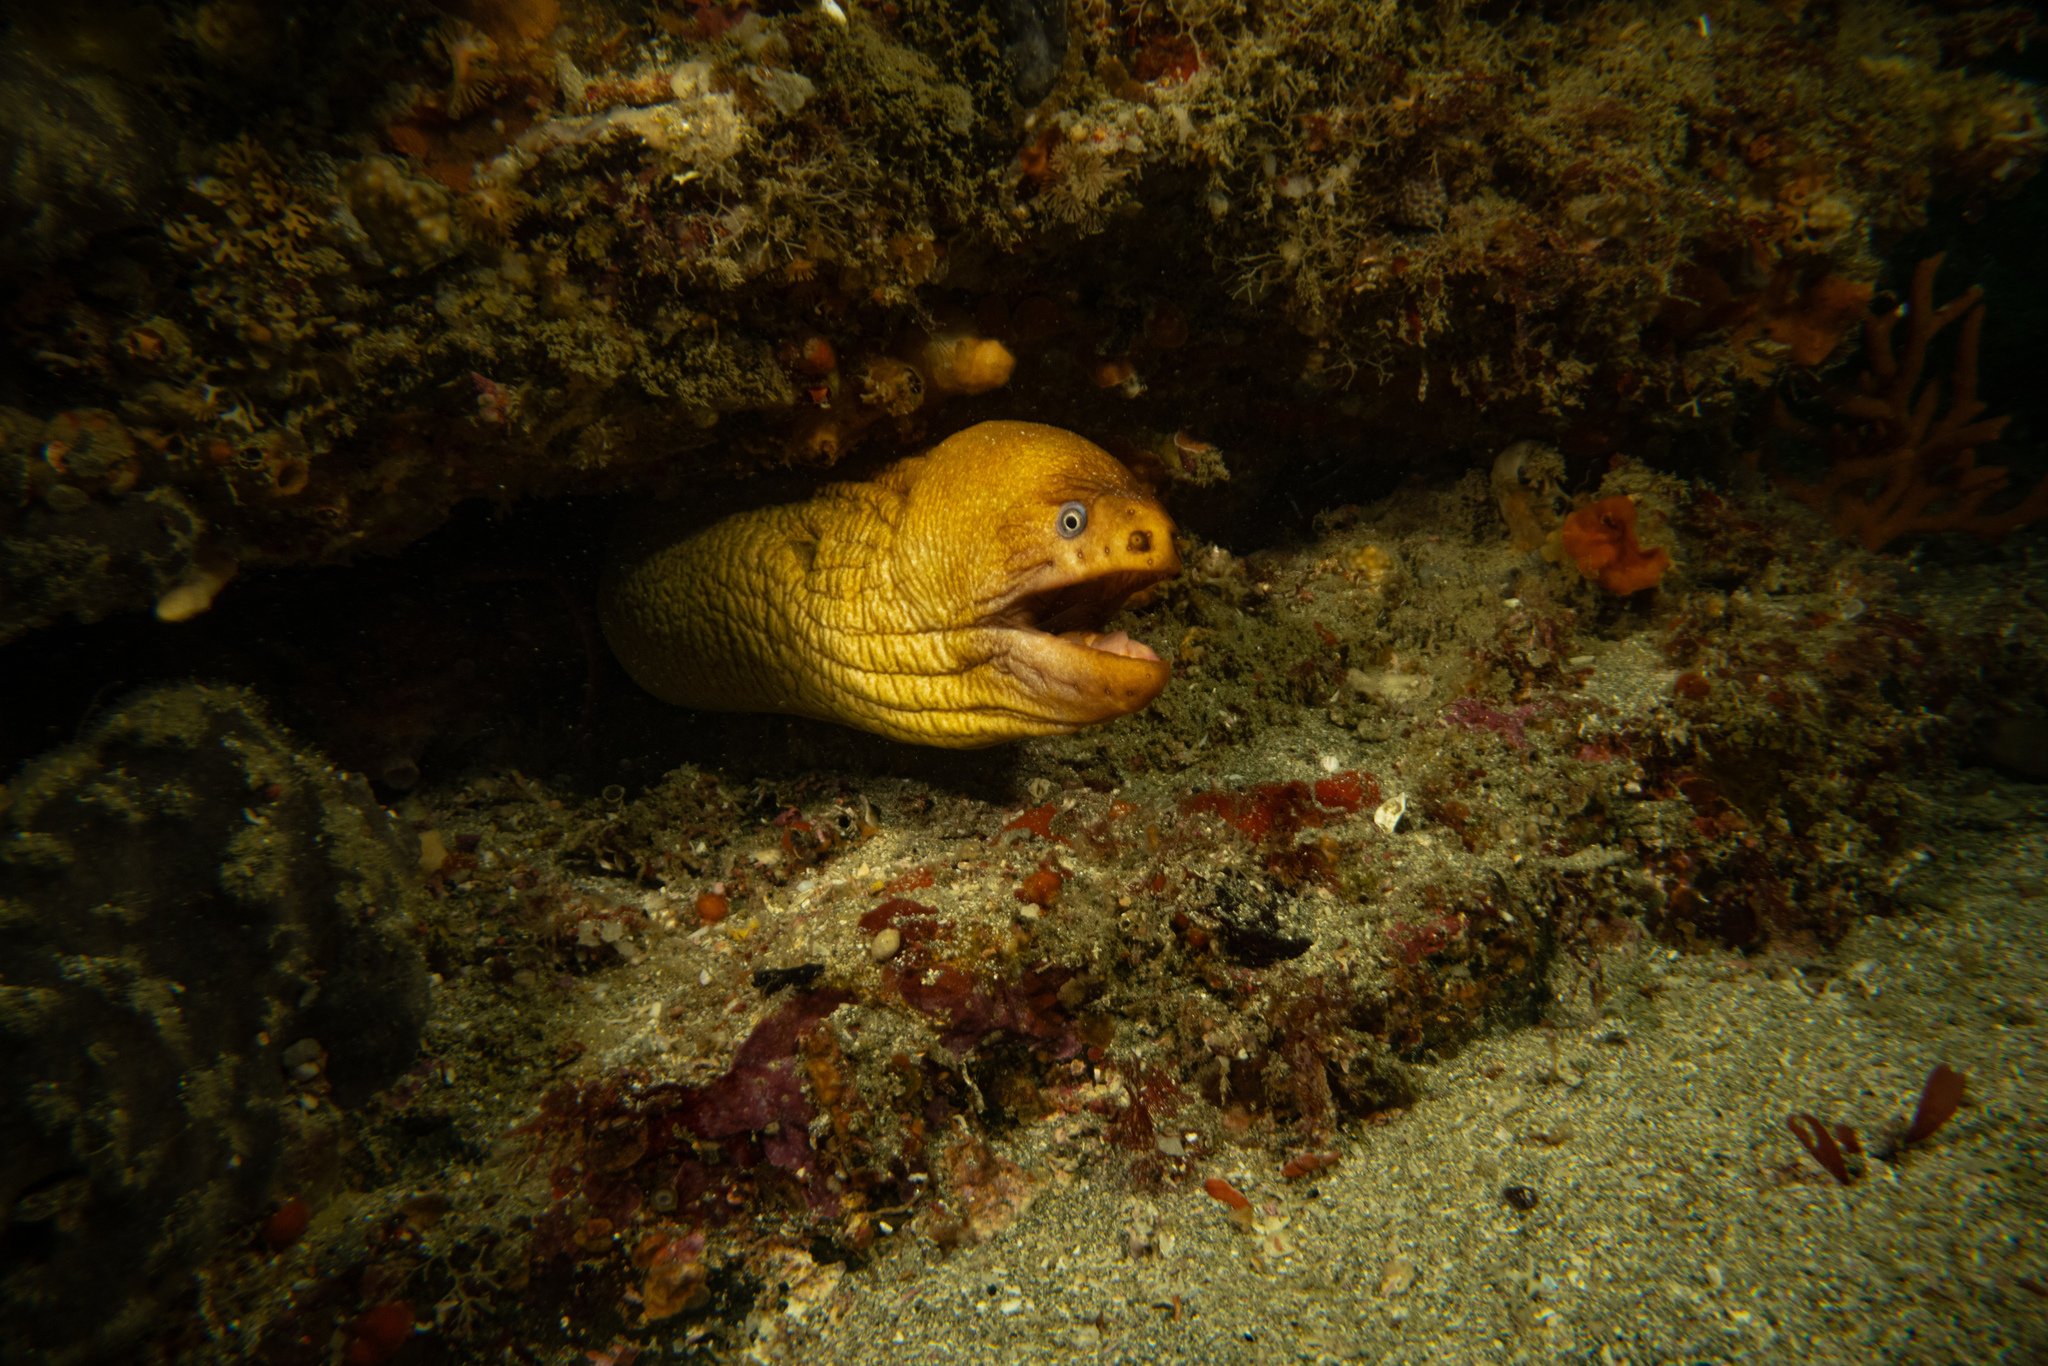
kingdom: Animalia
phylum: Chordata
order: Anguilliformes
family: Muraenidae
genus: Gymnothorax
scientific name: Gymnothorax prasinus
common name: Yellow moray
